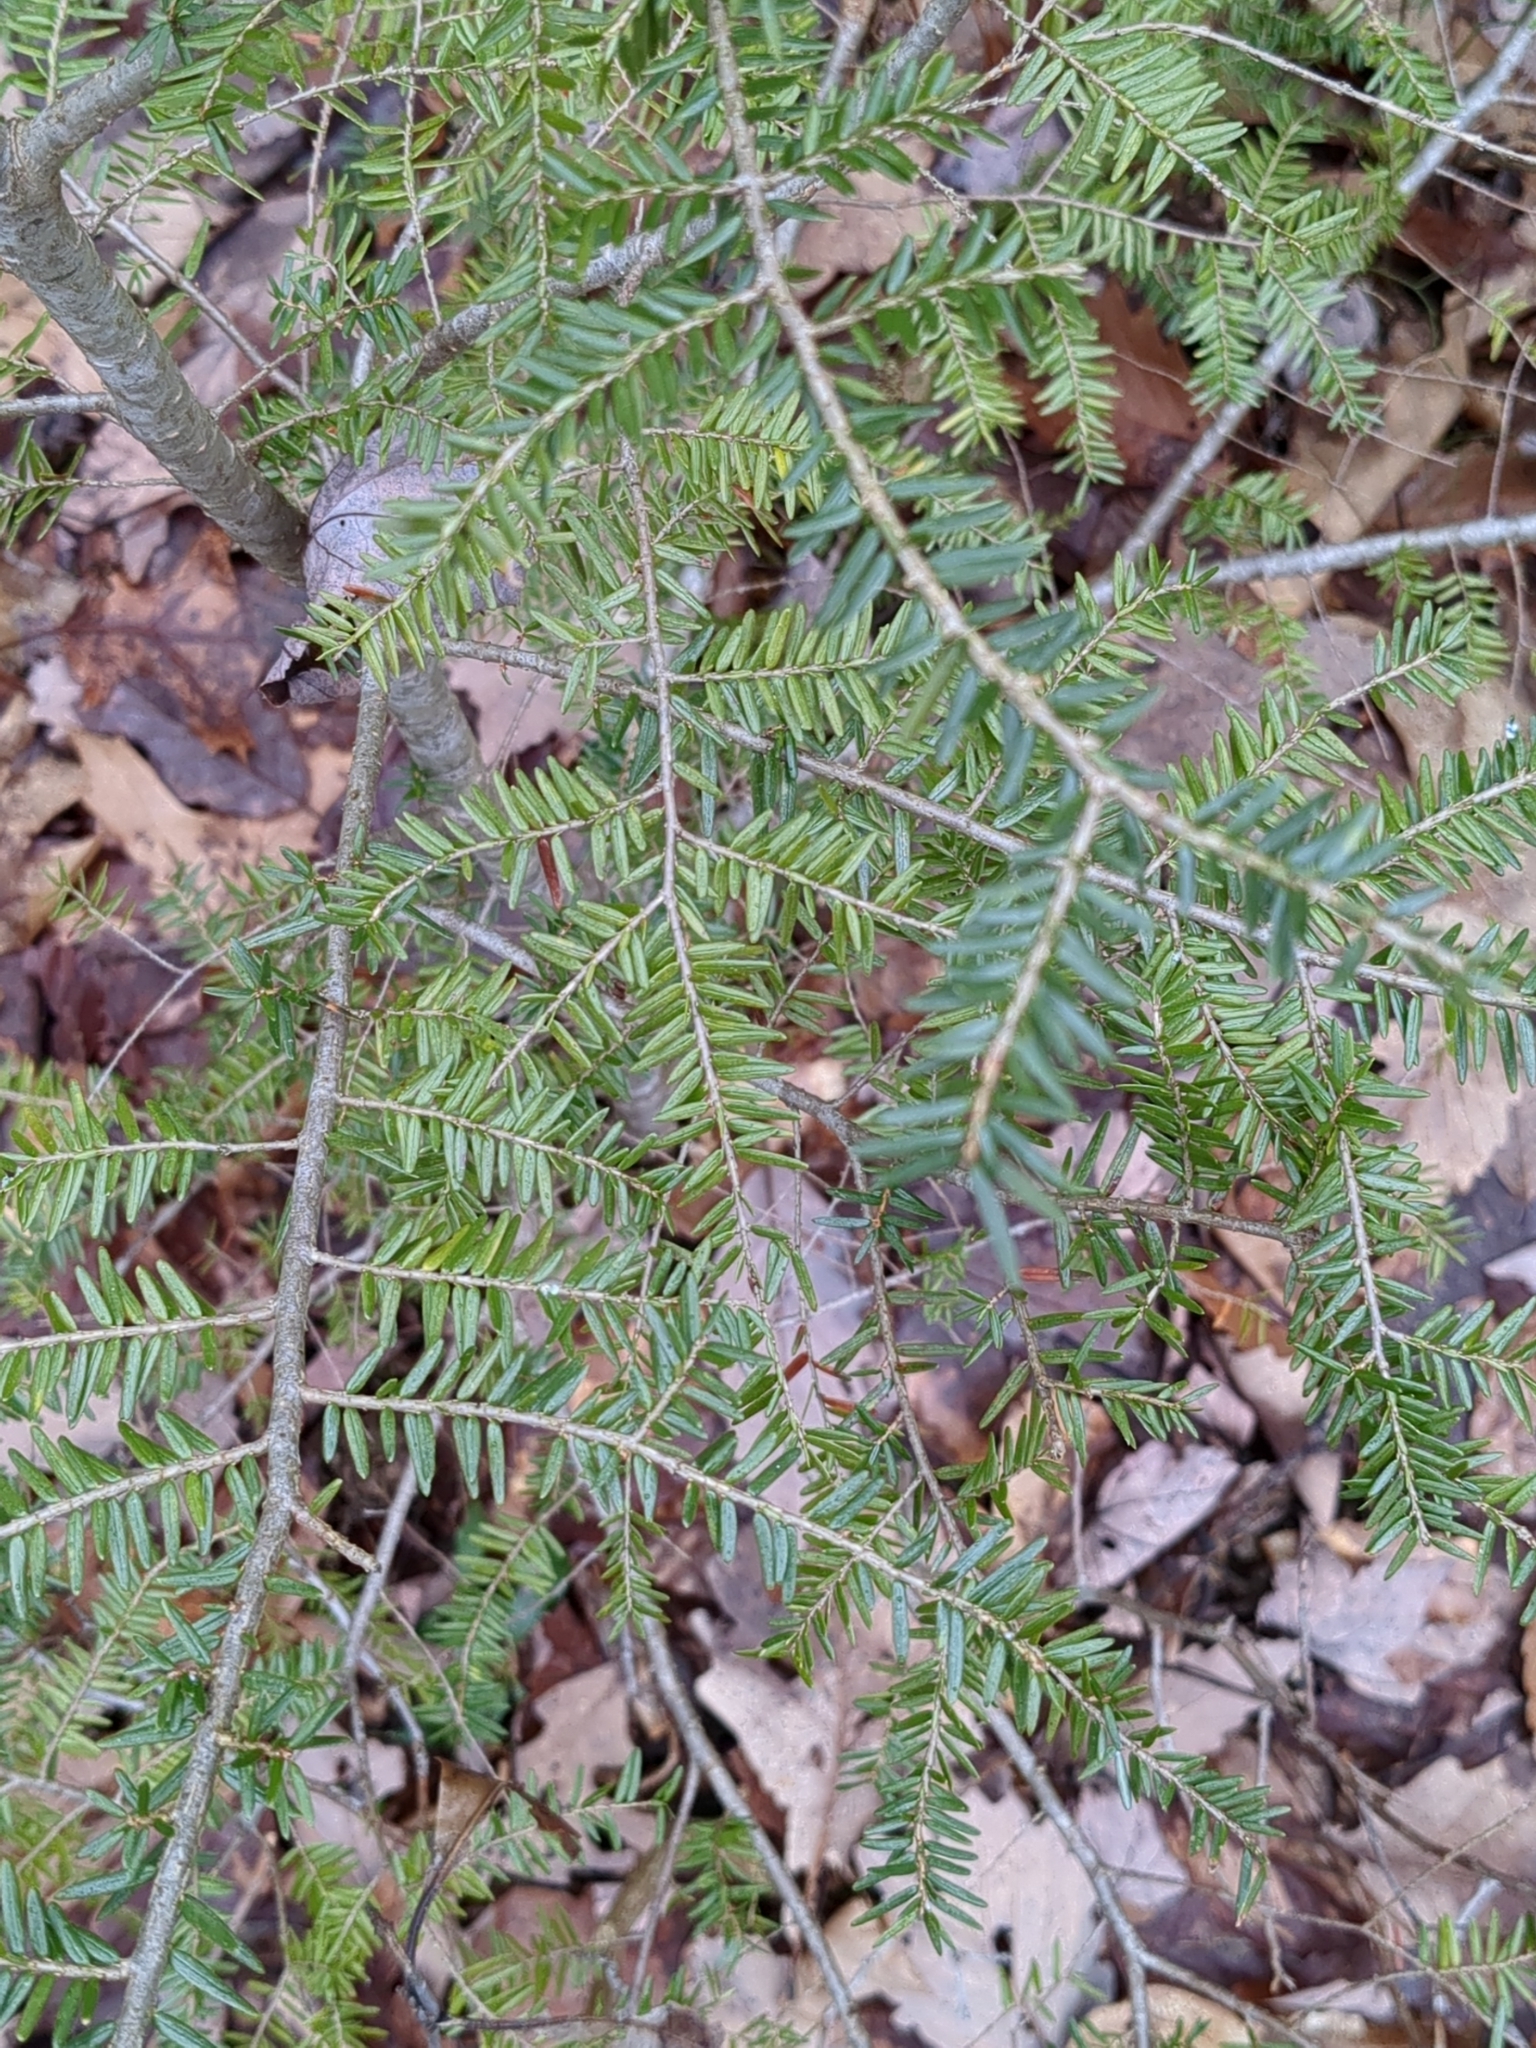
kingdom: Plantae
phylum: Tracheophyta
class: Pinopsida
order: Pinales
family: Pinaceae
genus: Tsuga
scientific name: Tsuga canadensis
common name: Eastern hemlock
